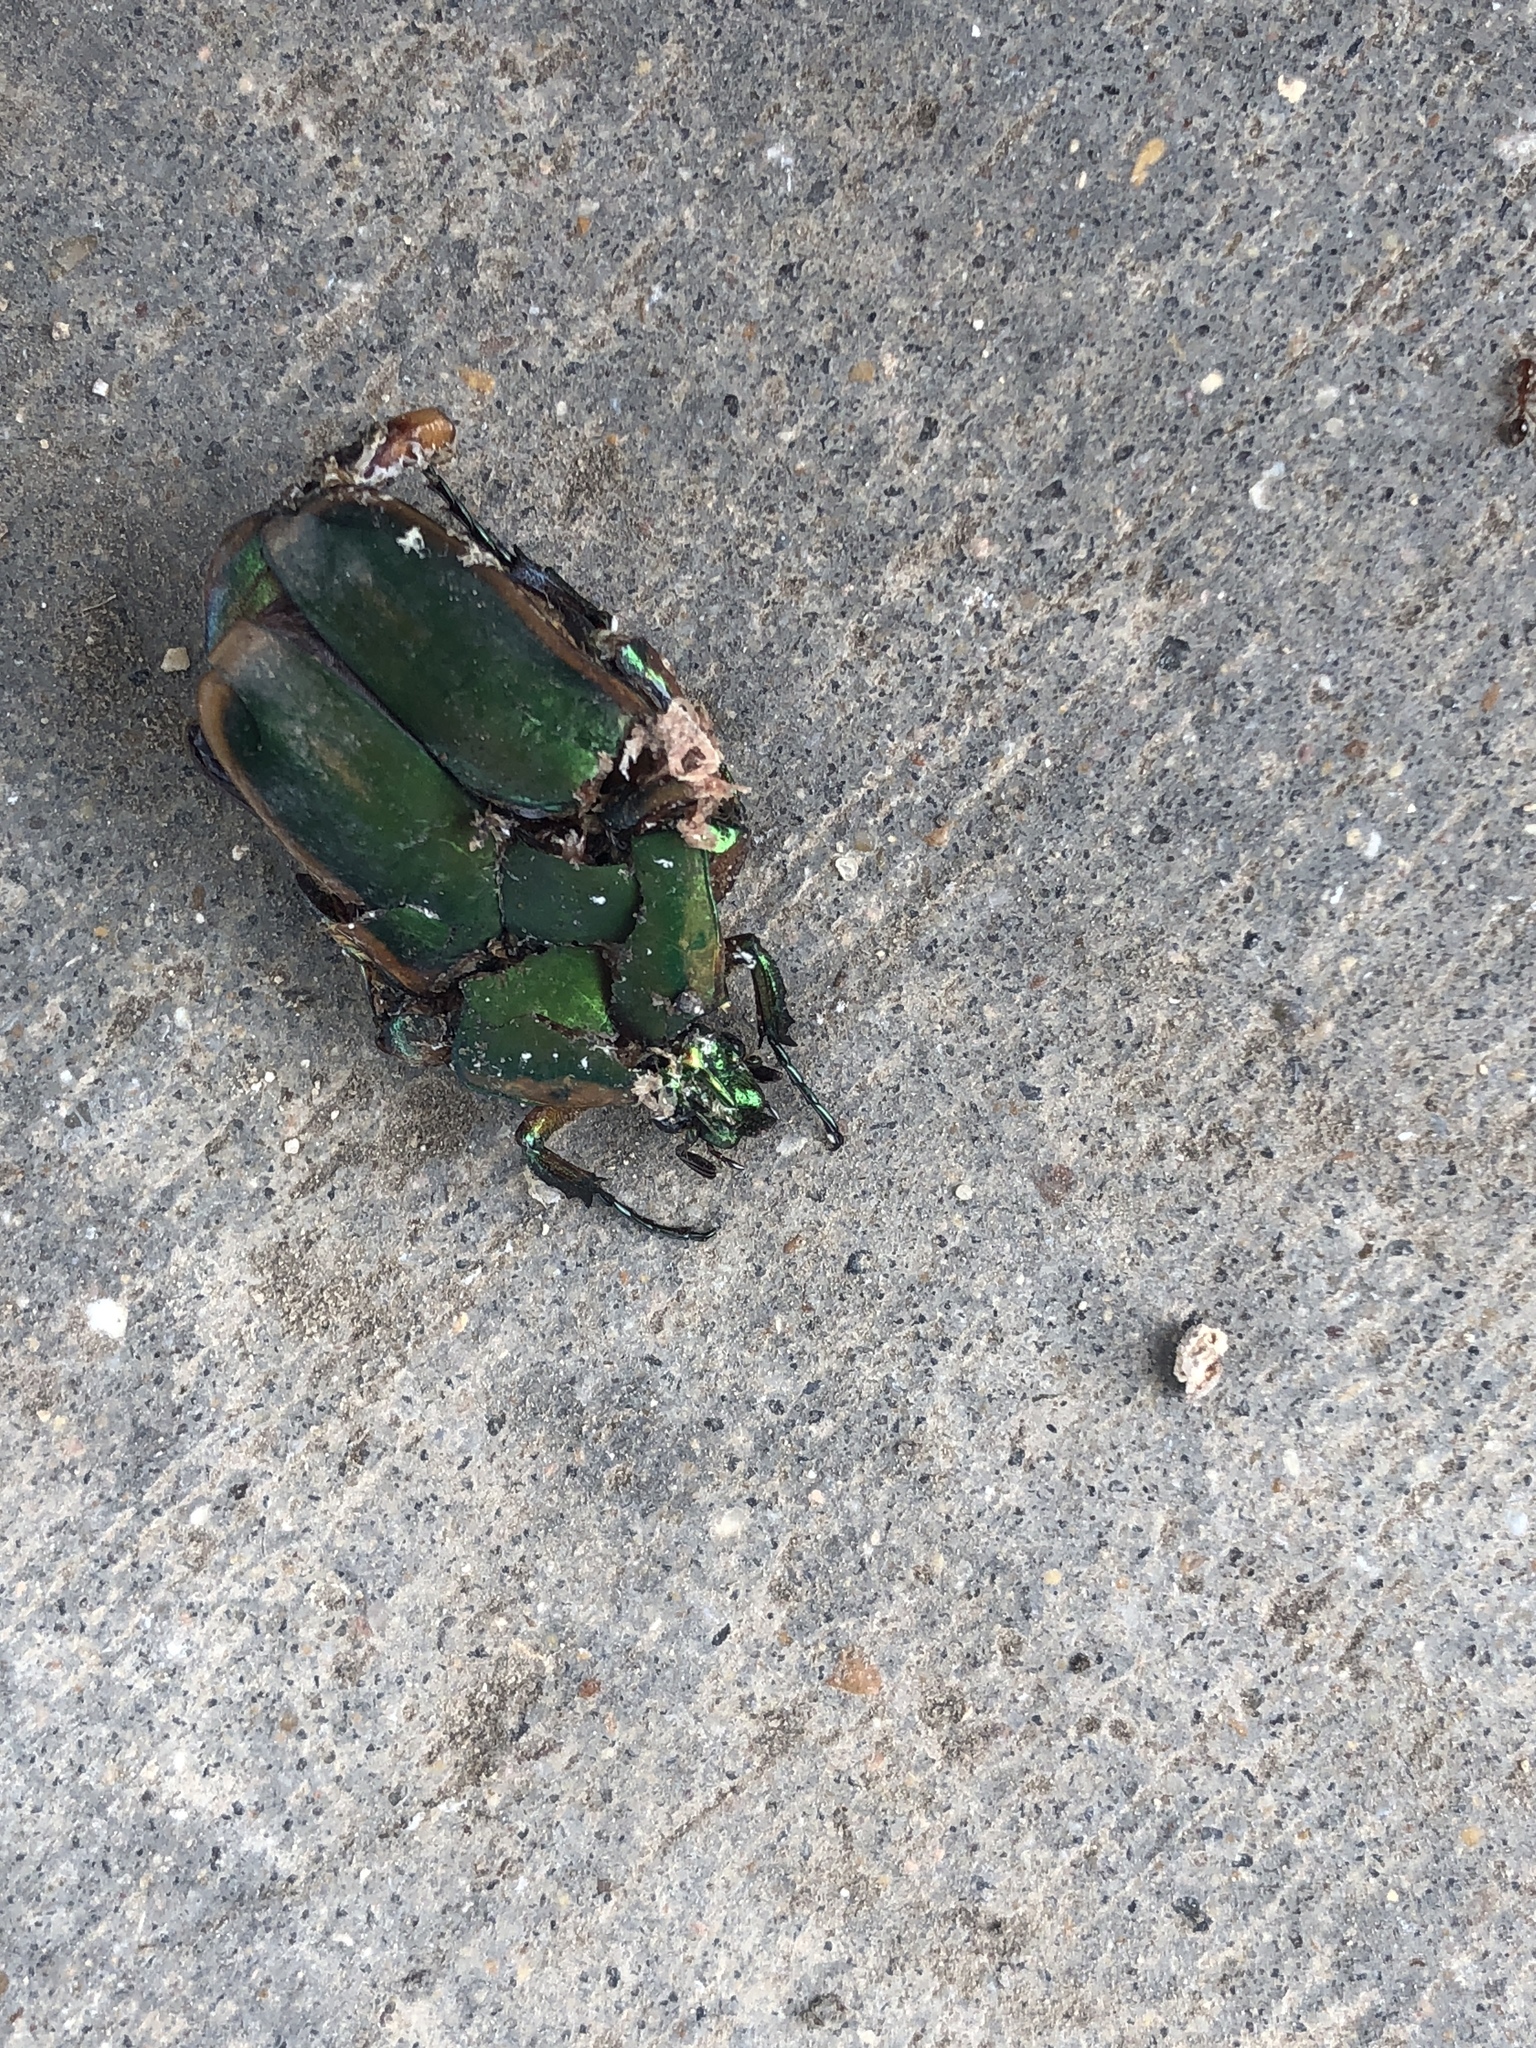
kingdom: Animalia
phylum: Arthropoda
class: Insecta
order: Coleoptera
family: Scarabaeidae
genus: Cotinis
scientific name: Cotinis nitida
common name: Common green june beetle
